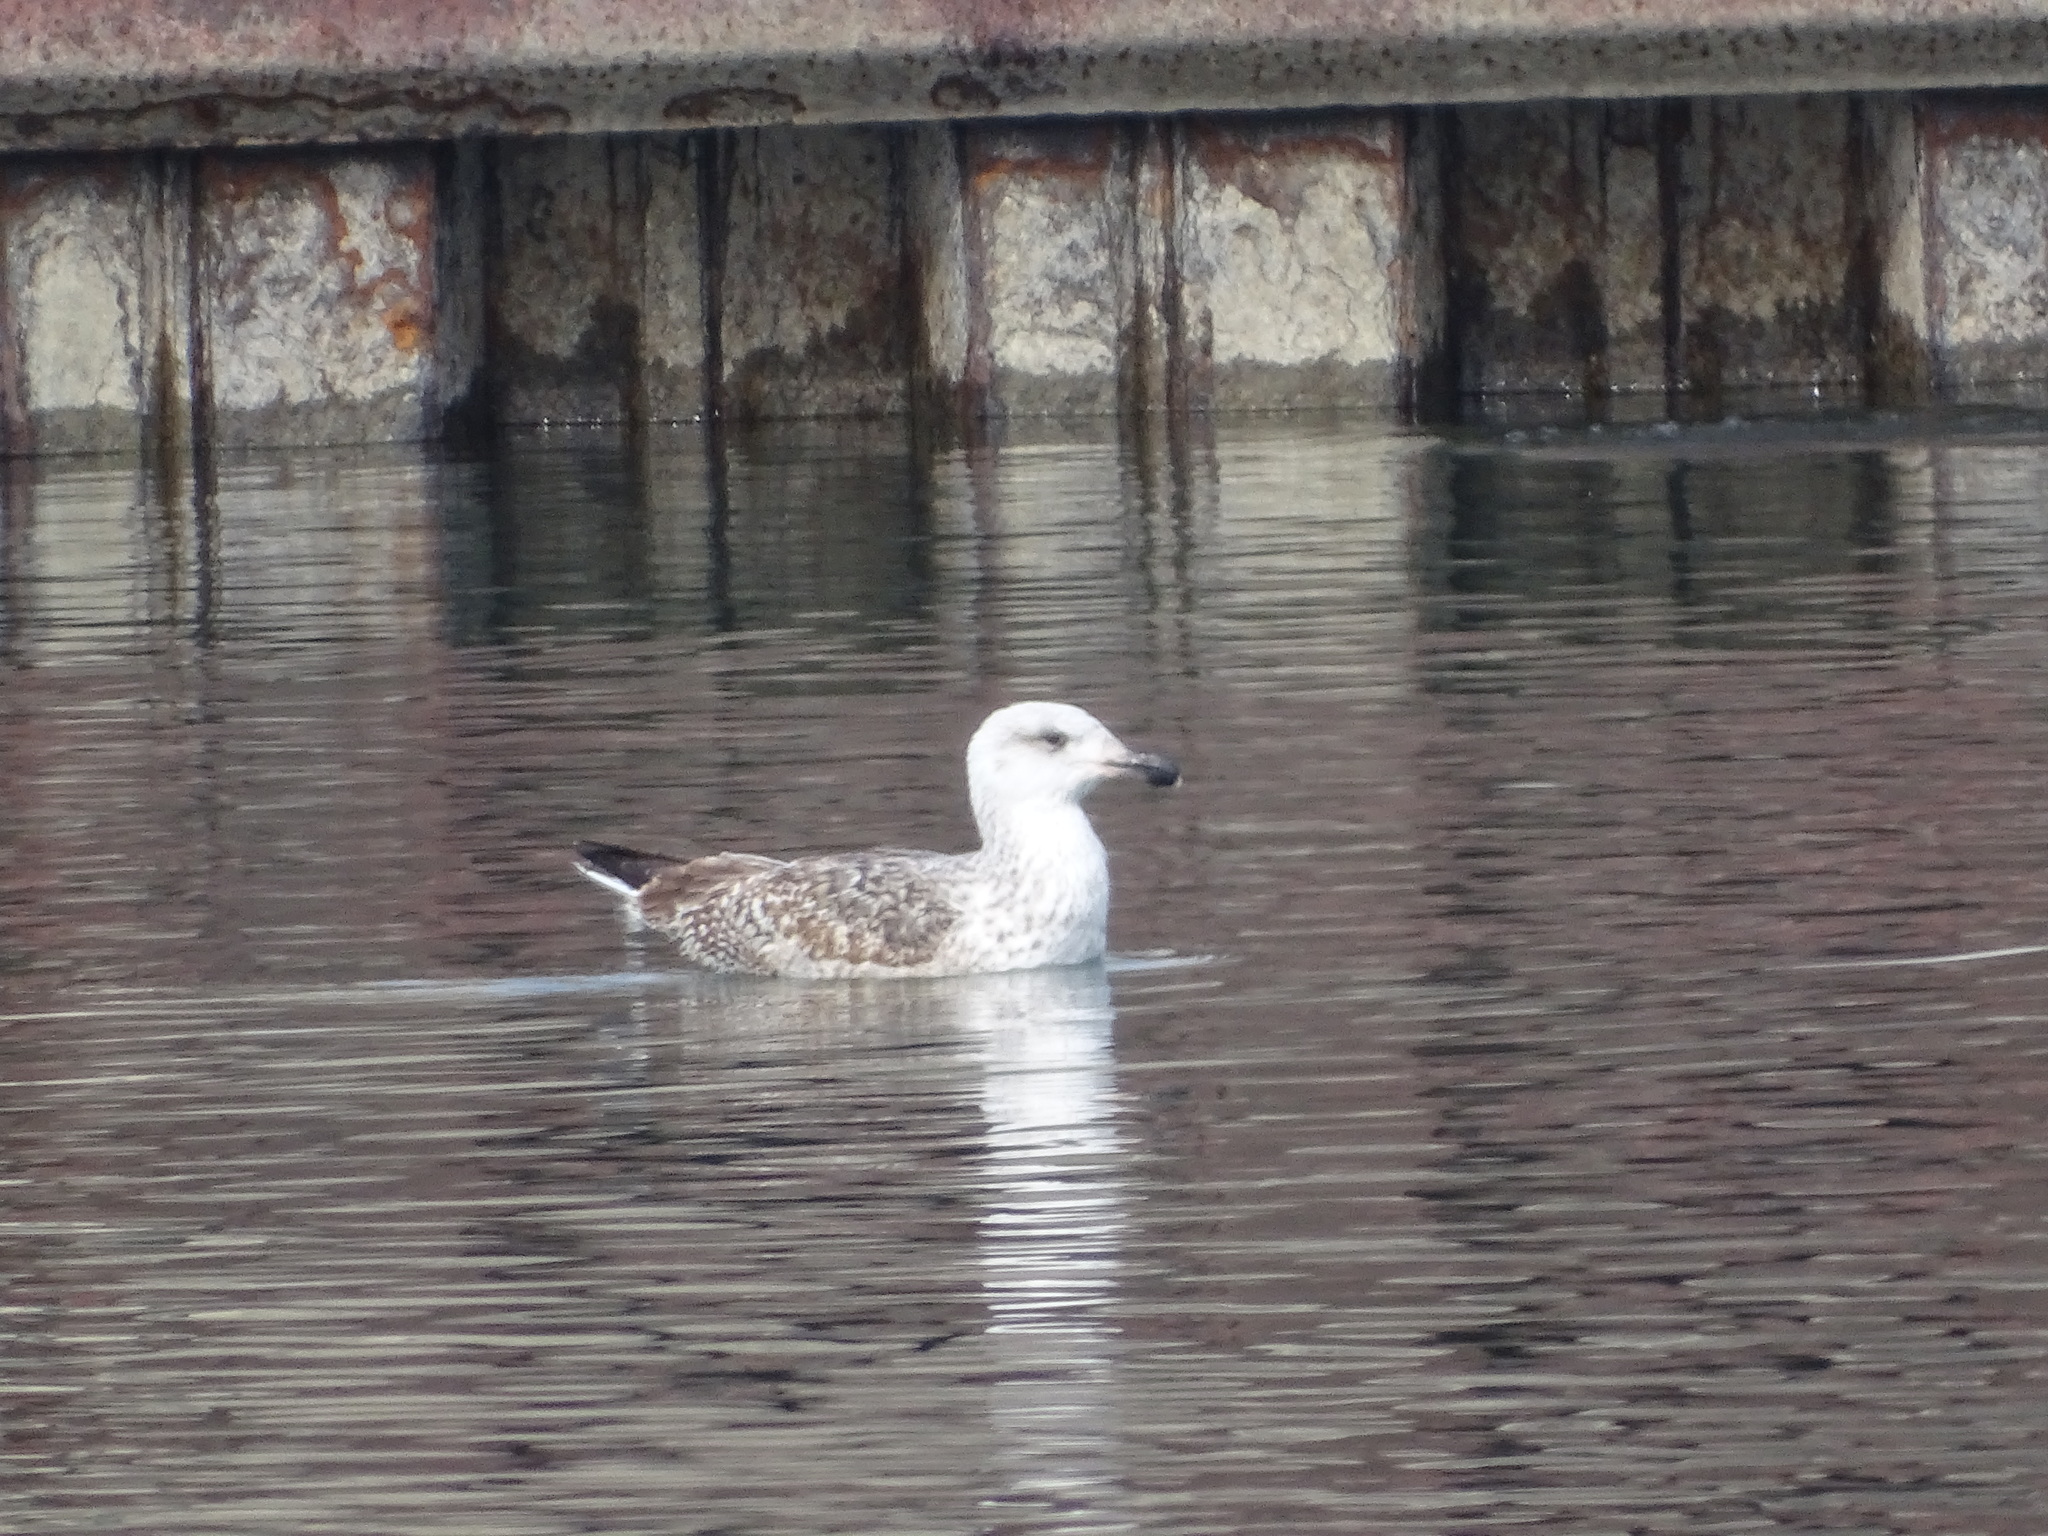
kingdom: Animalia
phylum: Chordata
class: Aves
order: Charadriiformes
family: Laridae
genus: Larus
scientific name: Larus marinus
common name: Great black-backed gull
